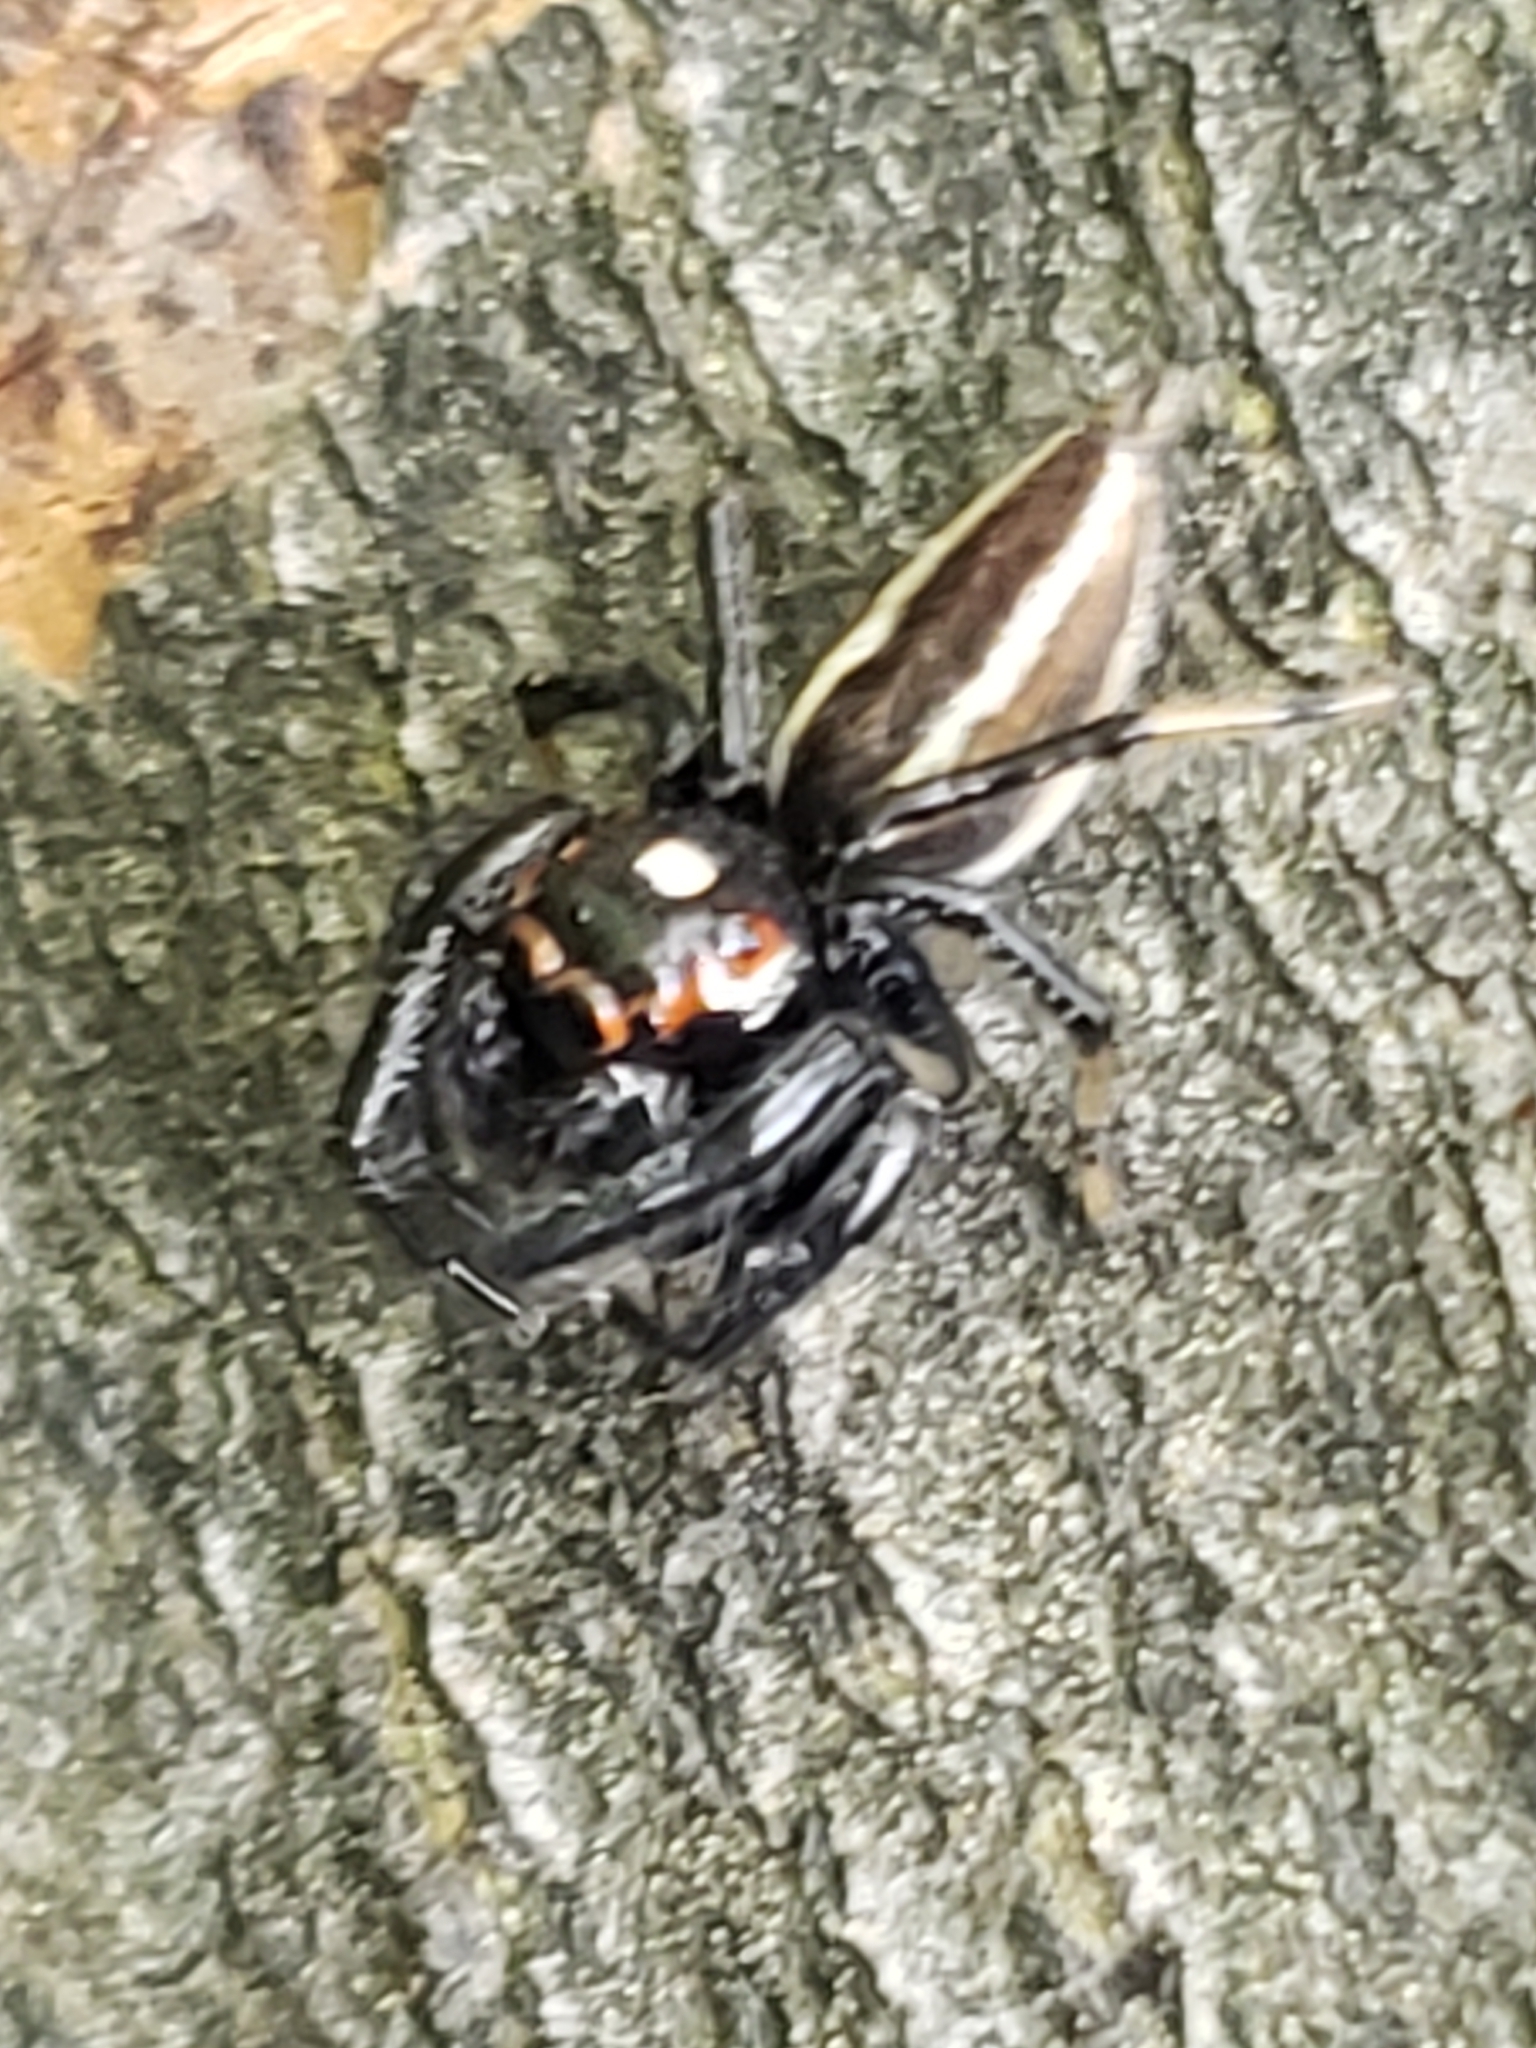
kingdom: Animalia
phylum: Arthropoda
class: Arachnida
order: Araneae
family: Salticidae
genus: Colonus
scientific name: Colonus sylvanus
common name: Jumping spiders
